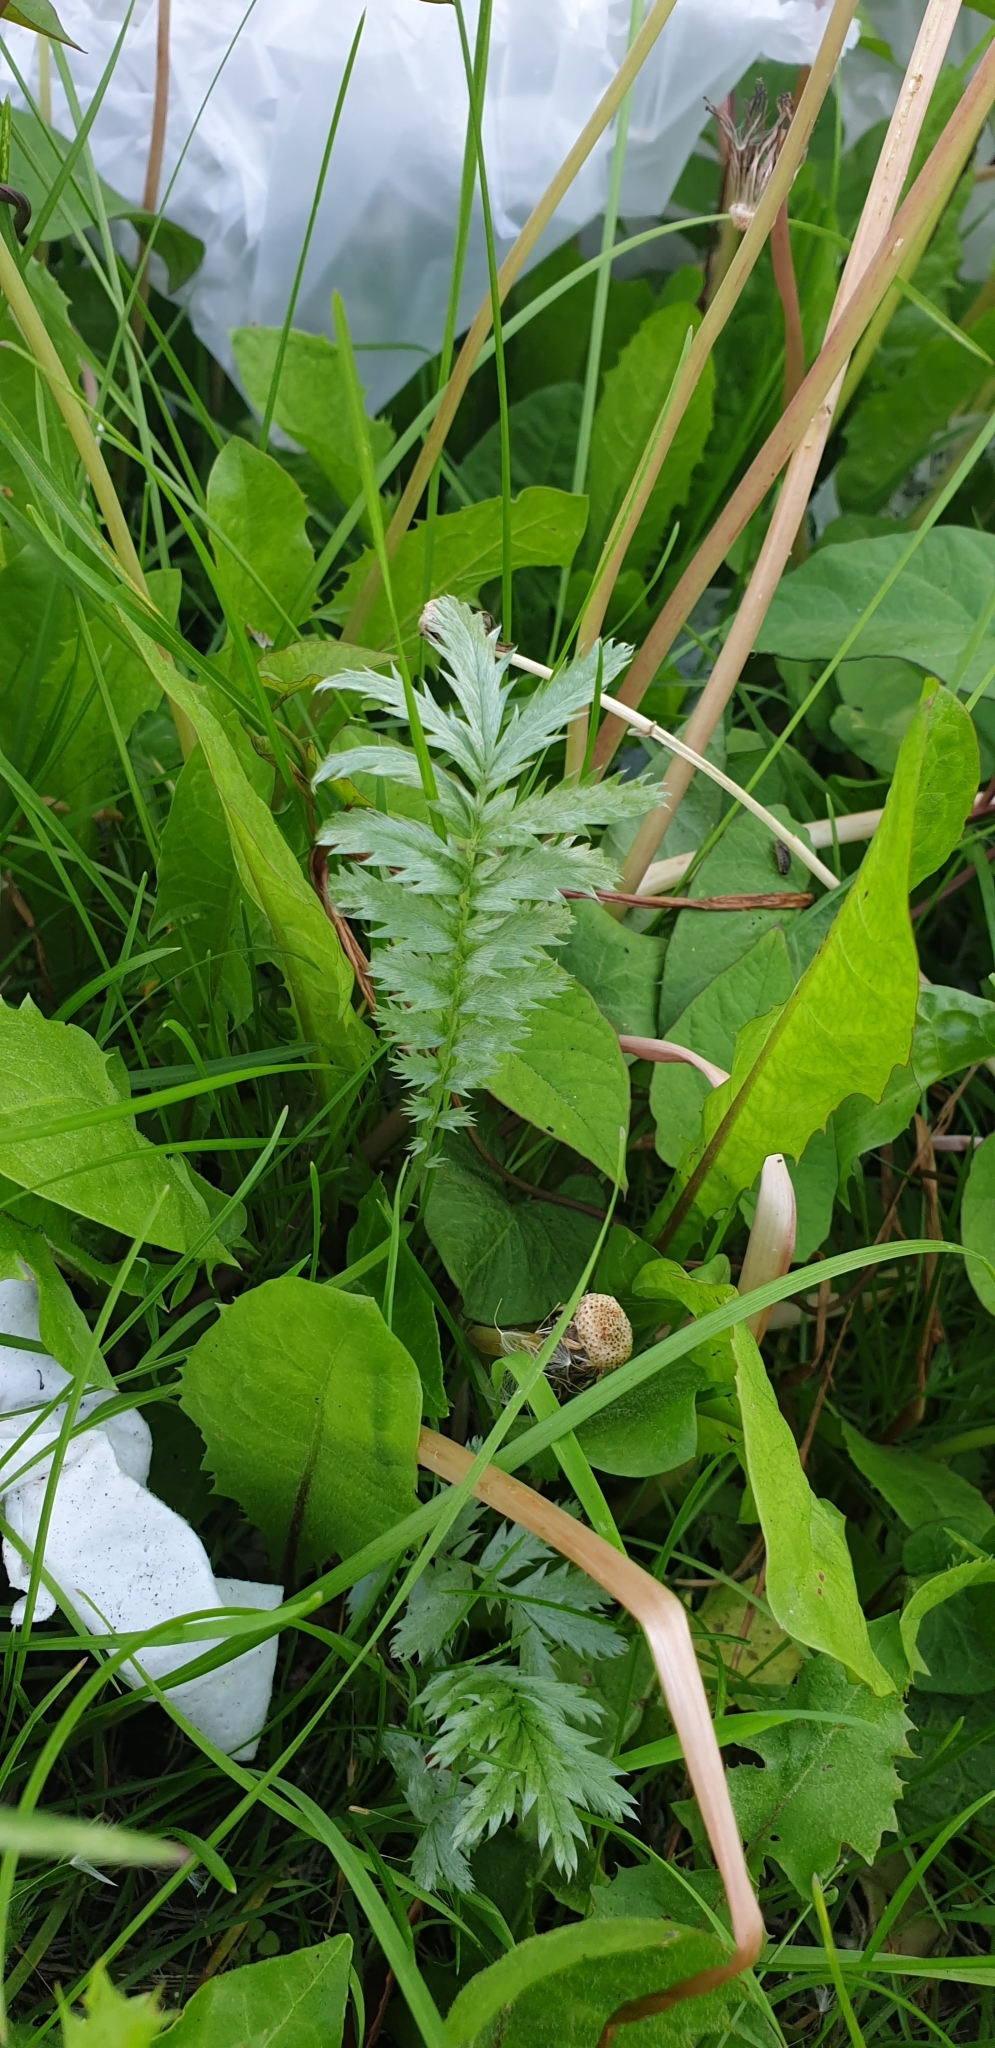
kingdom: Plantae
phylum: Tracheophyta
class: Magnoliopsida
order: Rosales
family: Rosaceae
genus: Argentina
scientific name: Argentina anserina
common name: Common silverweed
